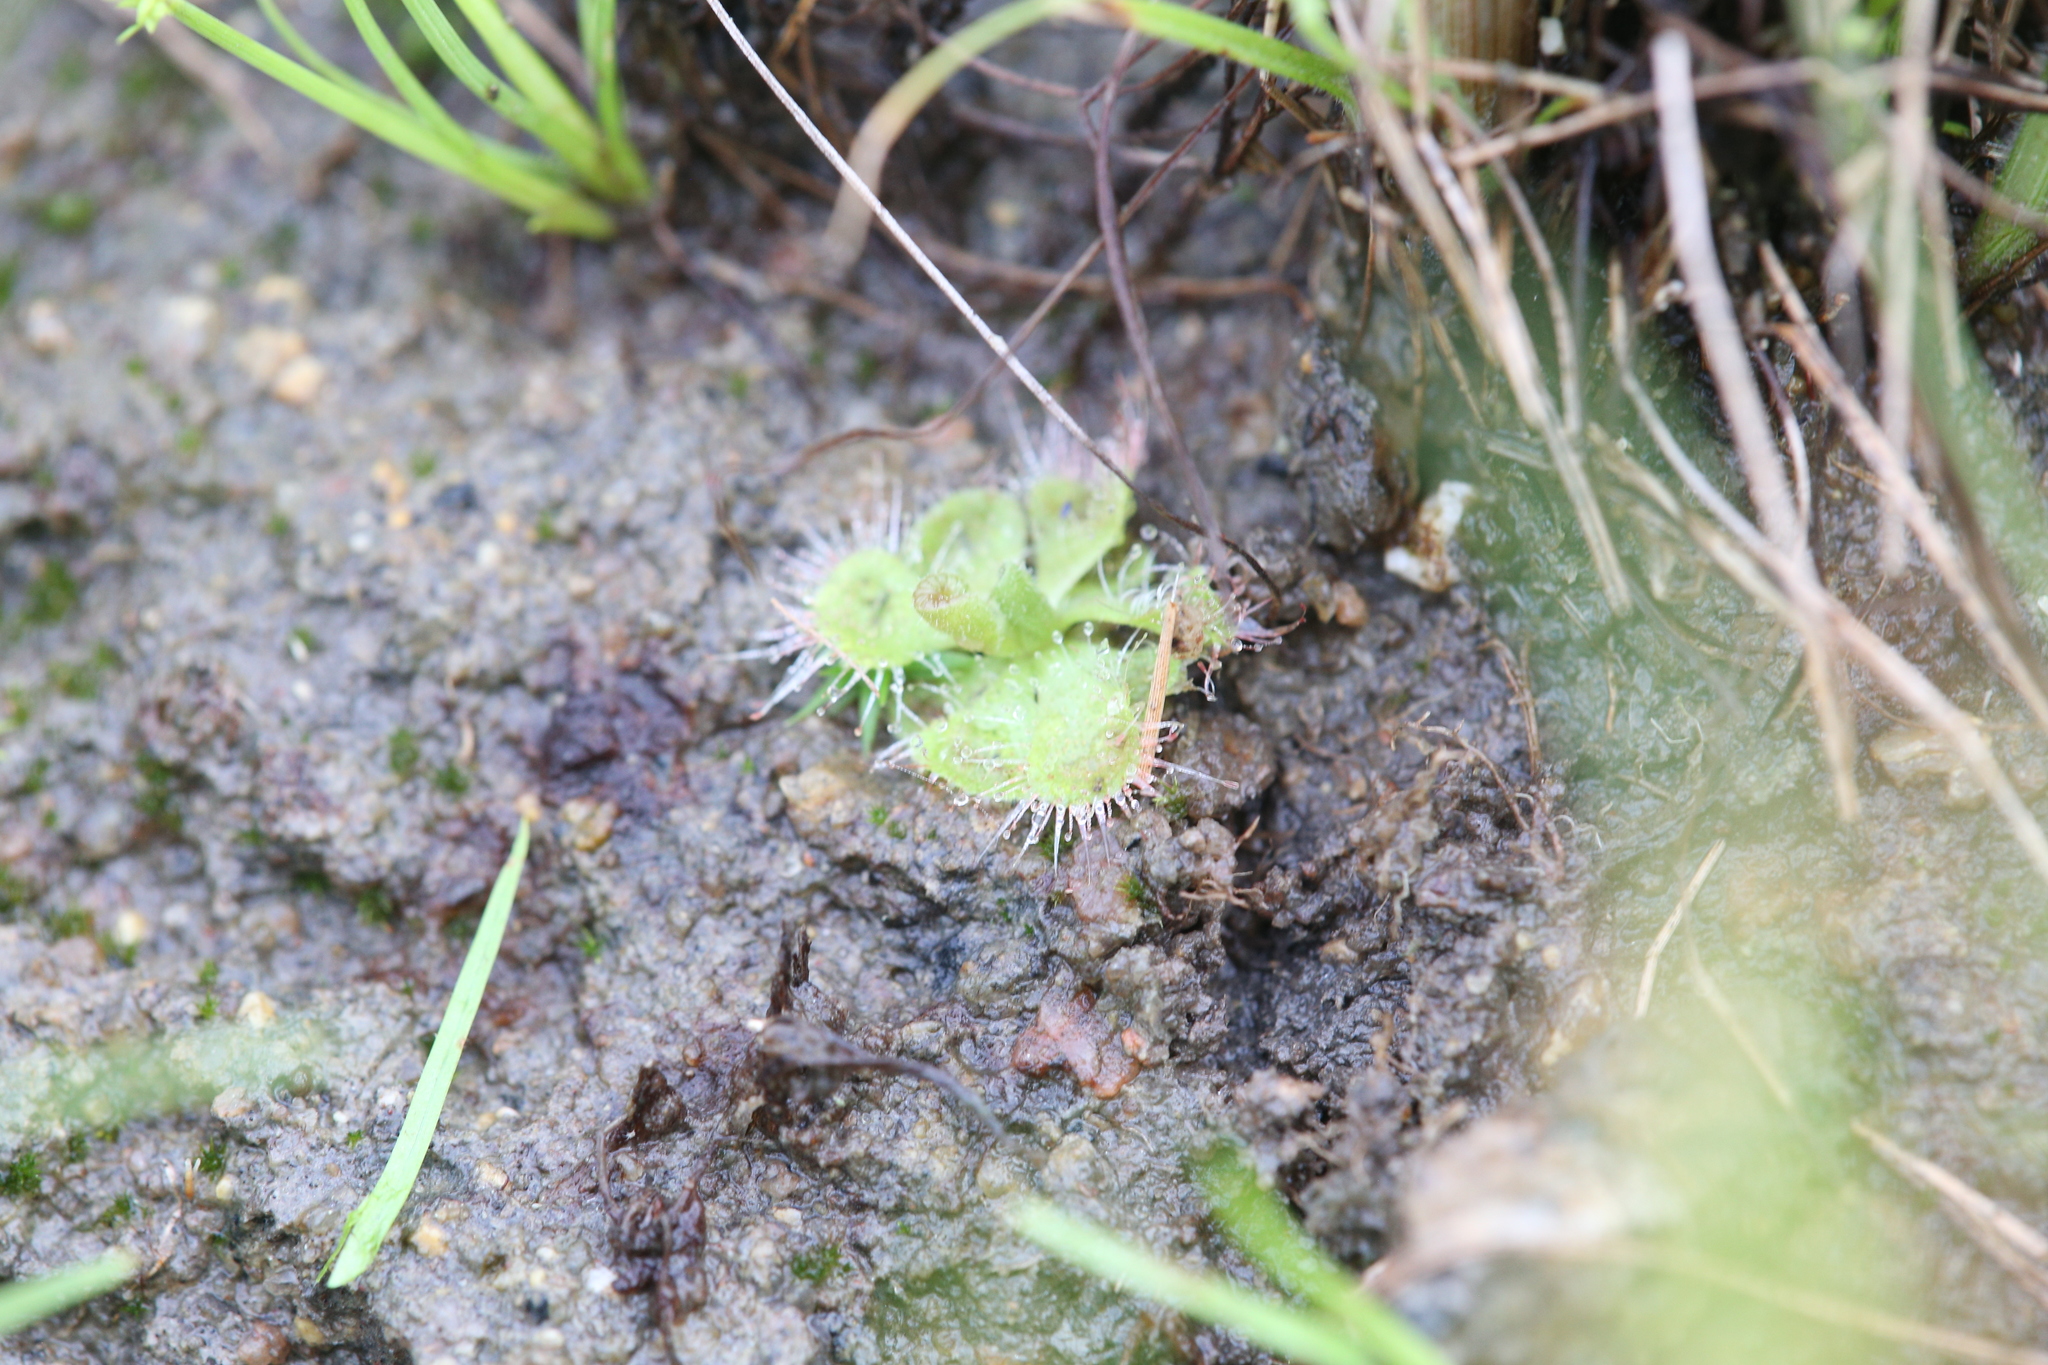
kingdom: Plantae
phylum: Tracheophyta
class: Magnoliopsida
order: Caryophyllales
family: Droseraceae
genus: Drosera
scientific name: Drosera spatulata
